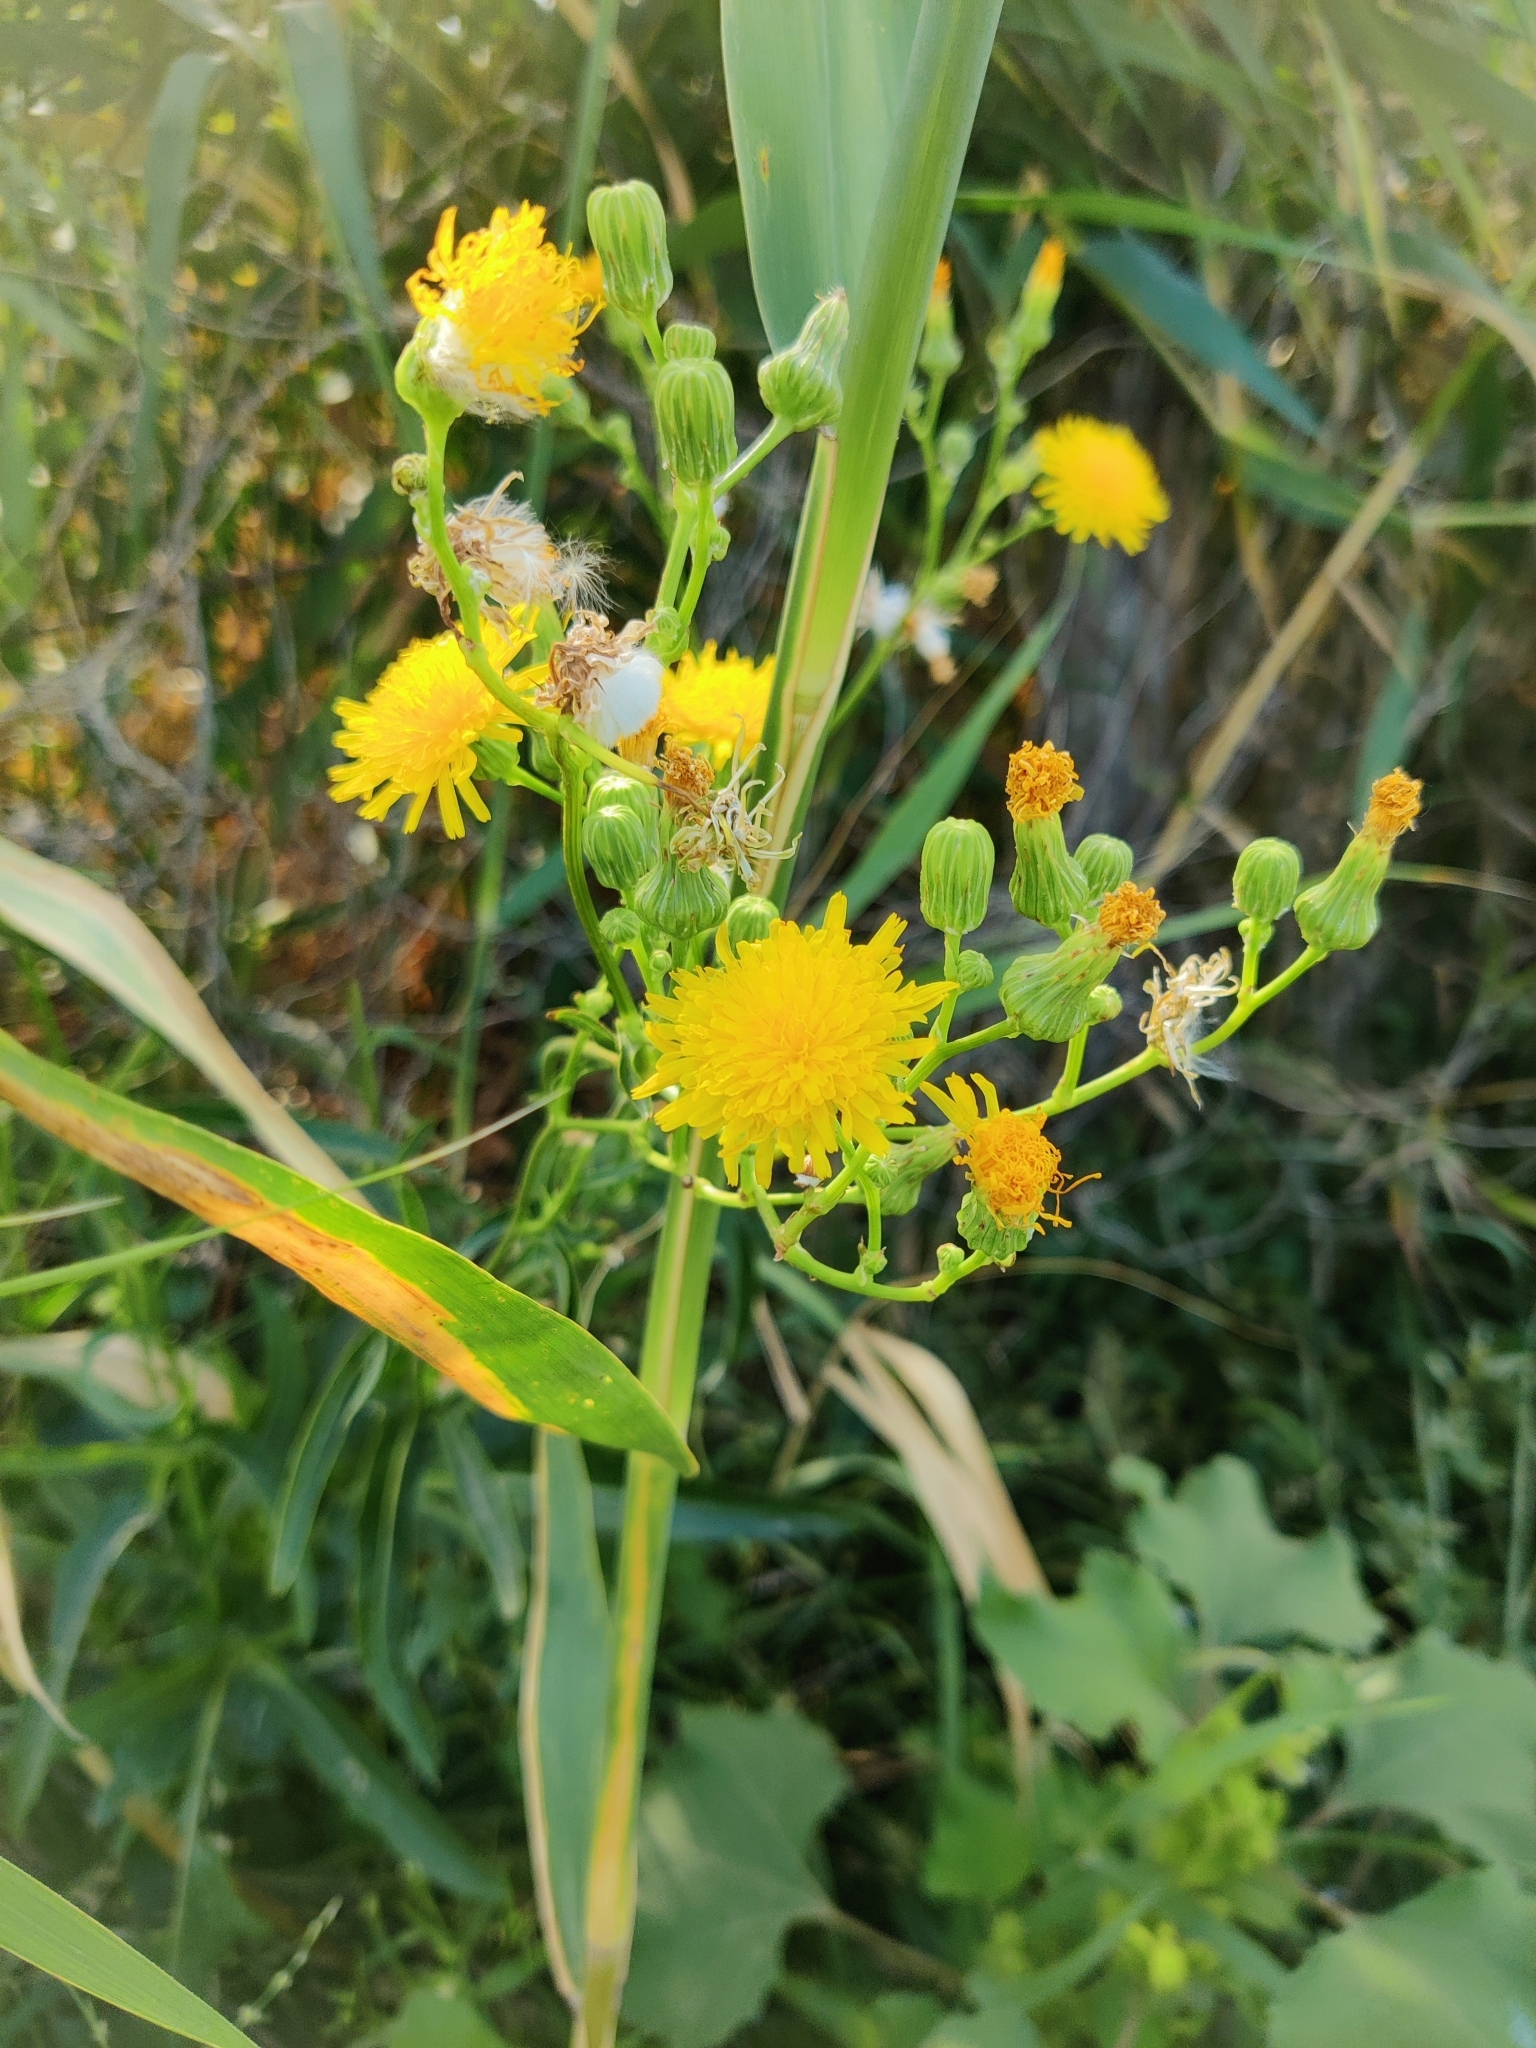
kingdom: Plantae
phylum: Tracheophyta
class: Magnoliopsida
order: Asterales
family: Asteraceae
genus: Sonchus
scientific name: Sonchus arvensis
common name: Perennial sow-thistle
